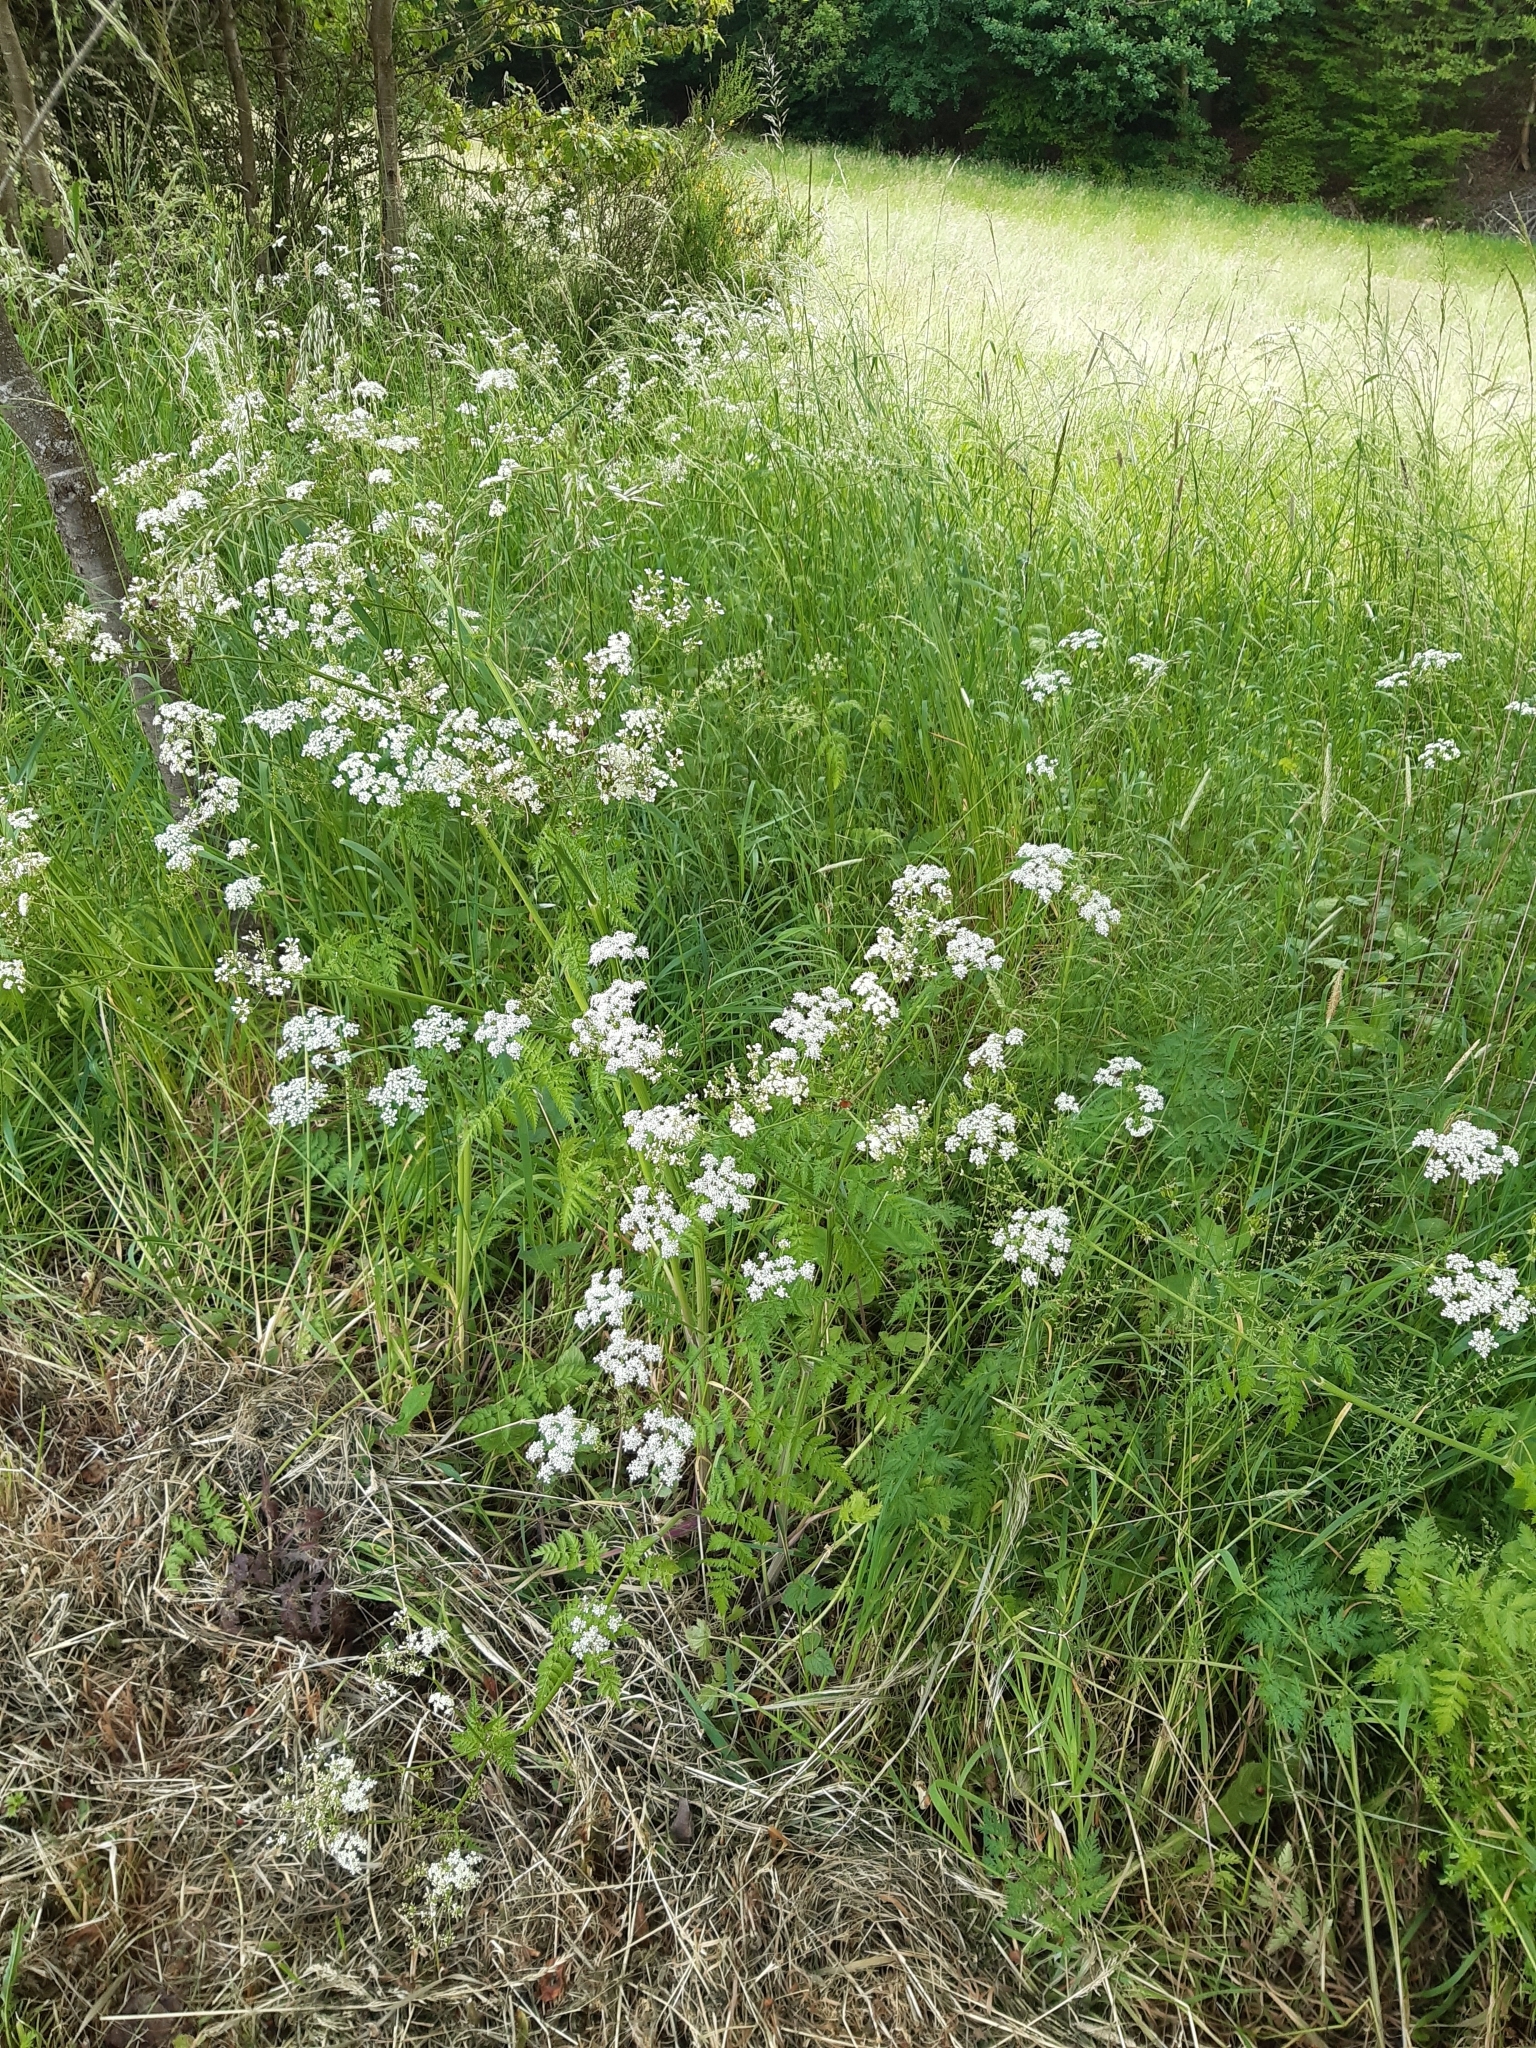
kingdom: Plantae
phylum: Tracheophyta
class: Magnoliopsida
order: Apiales
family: Apiaceae
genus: Anthriscus
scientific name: Anthriscus sylvestris
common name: Cow parsley
